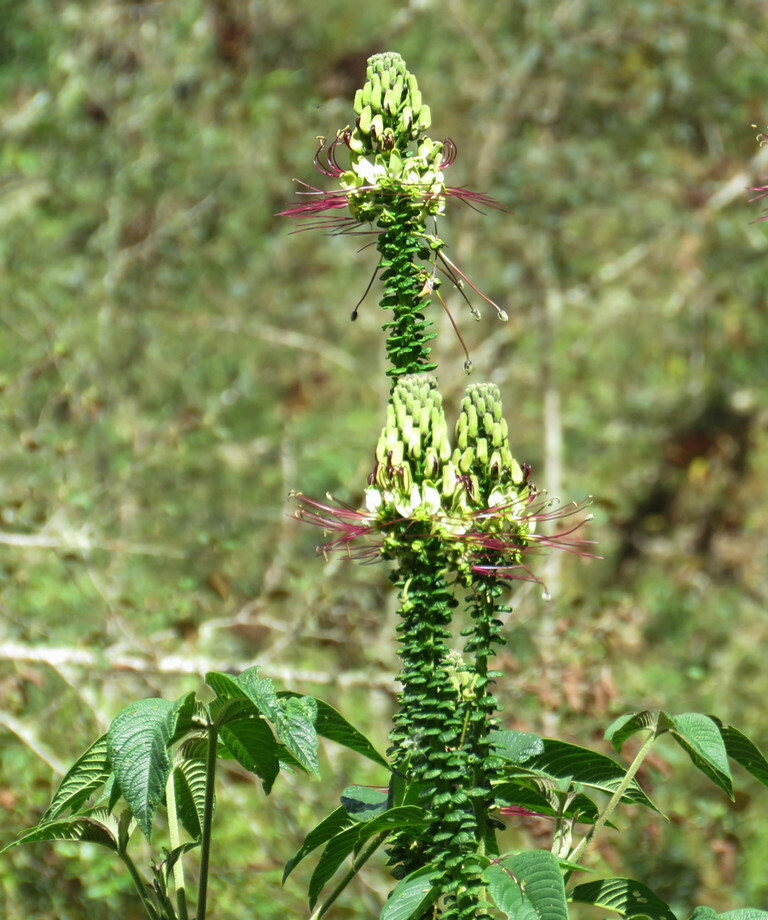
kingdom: Plantae
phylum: Tracheophyta
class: Magnoliopsida
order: Brassicales
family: Cleomaceae
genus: Andinocleome
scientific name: Andinocleome anomala
